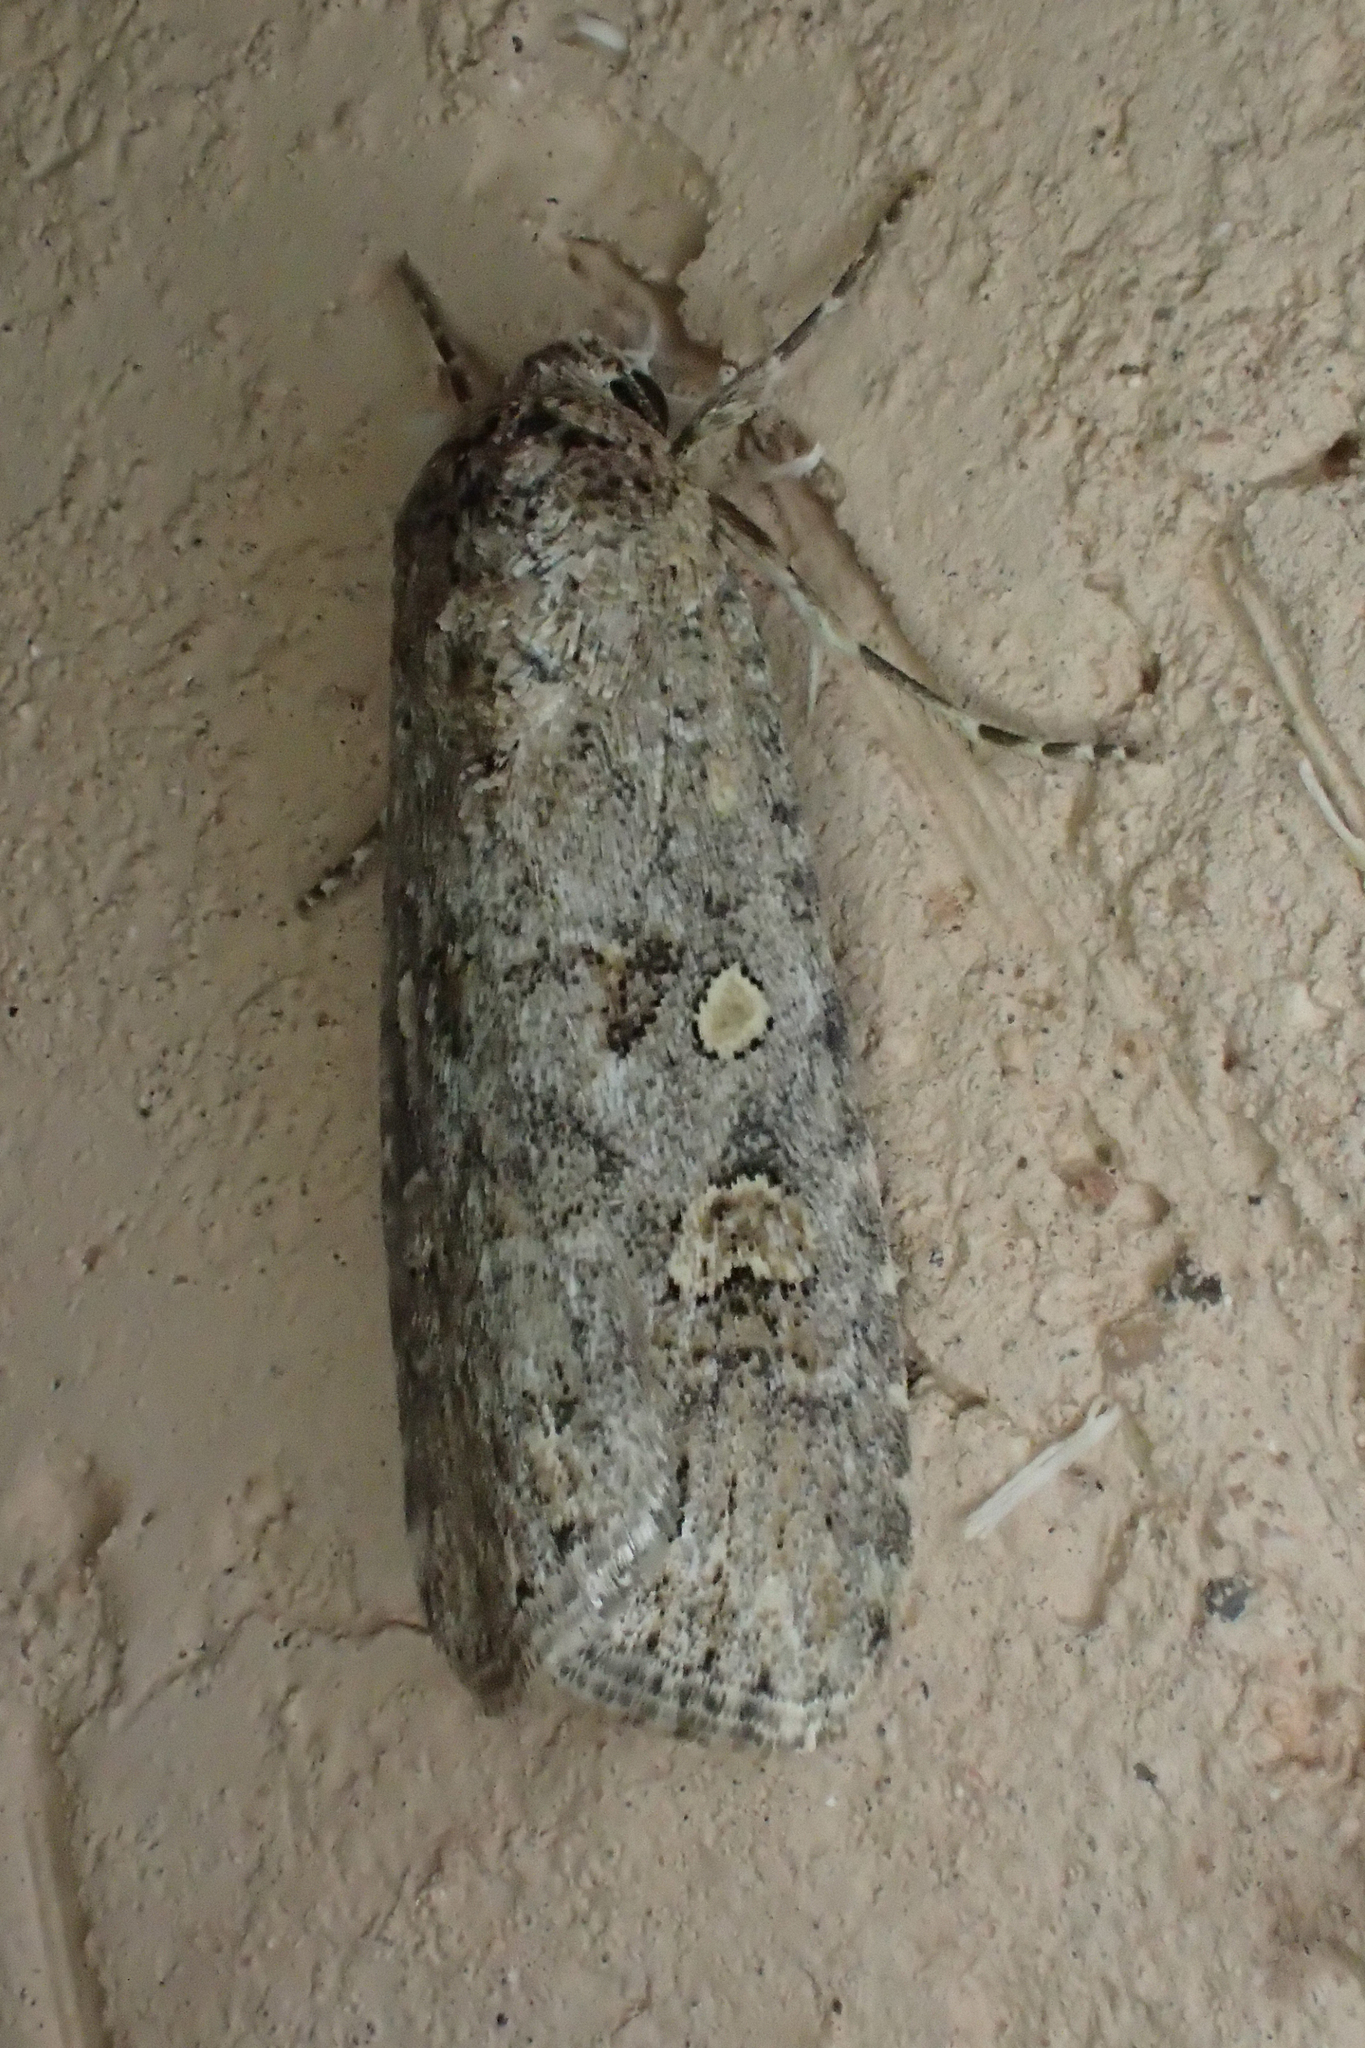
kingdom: Animalia
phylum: Arthropoda
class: Insecta
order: Lepidoptera
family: Noctuidae
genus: Spodoptera
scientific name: Spodoptera exigua
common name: Beet armyworm
